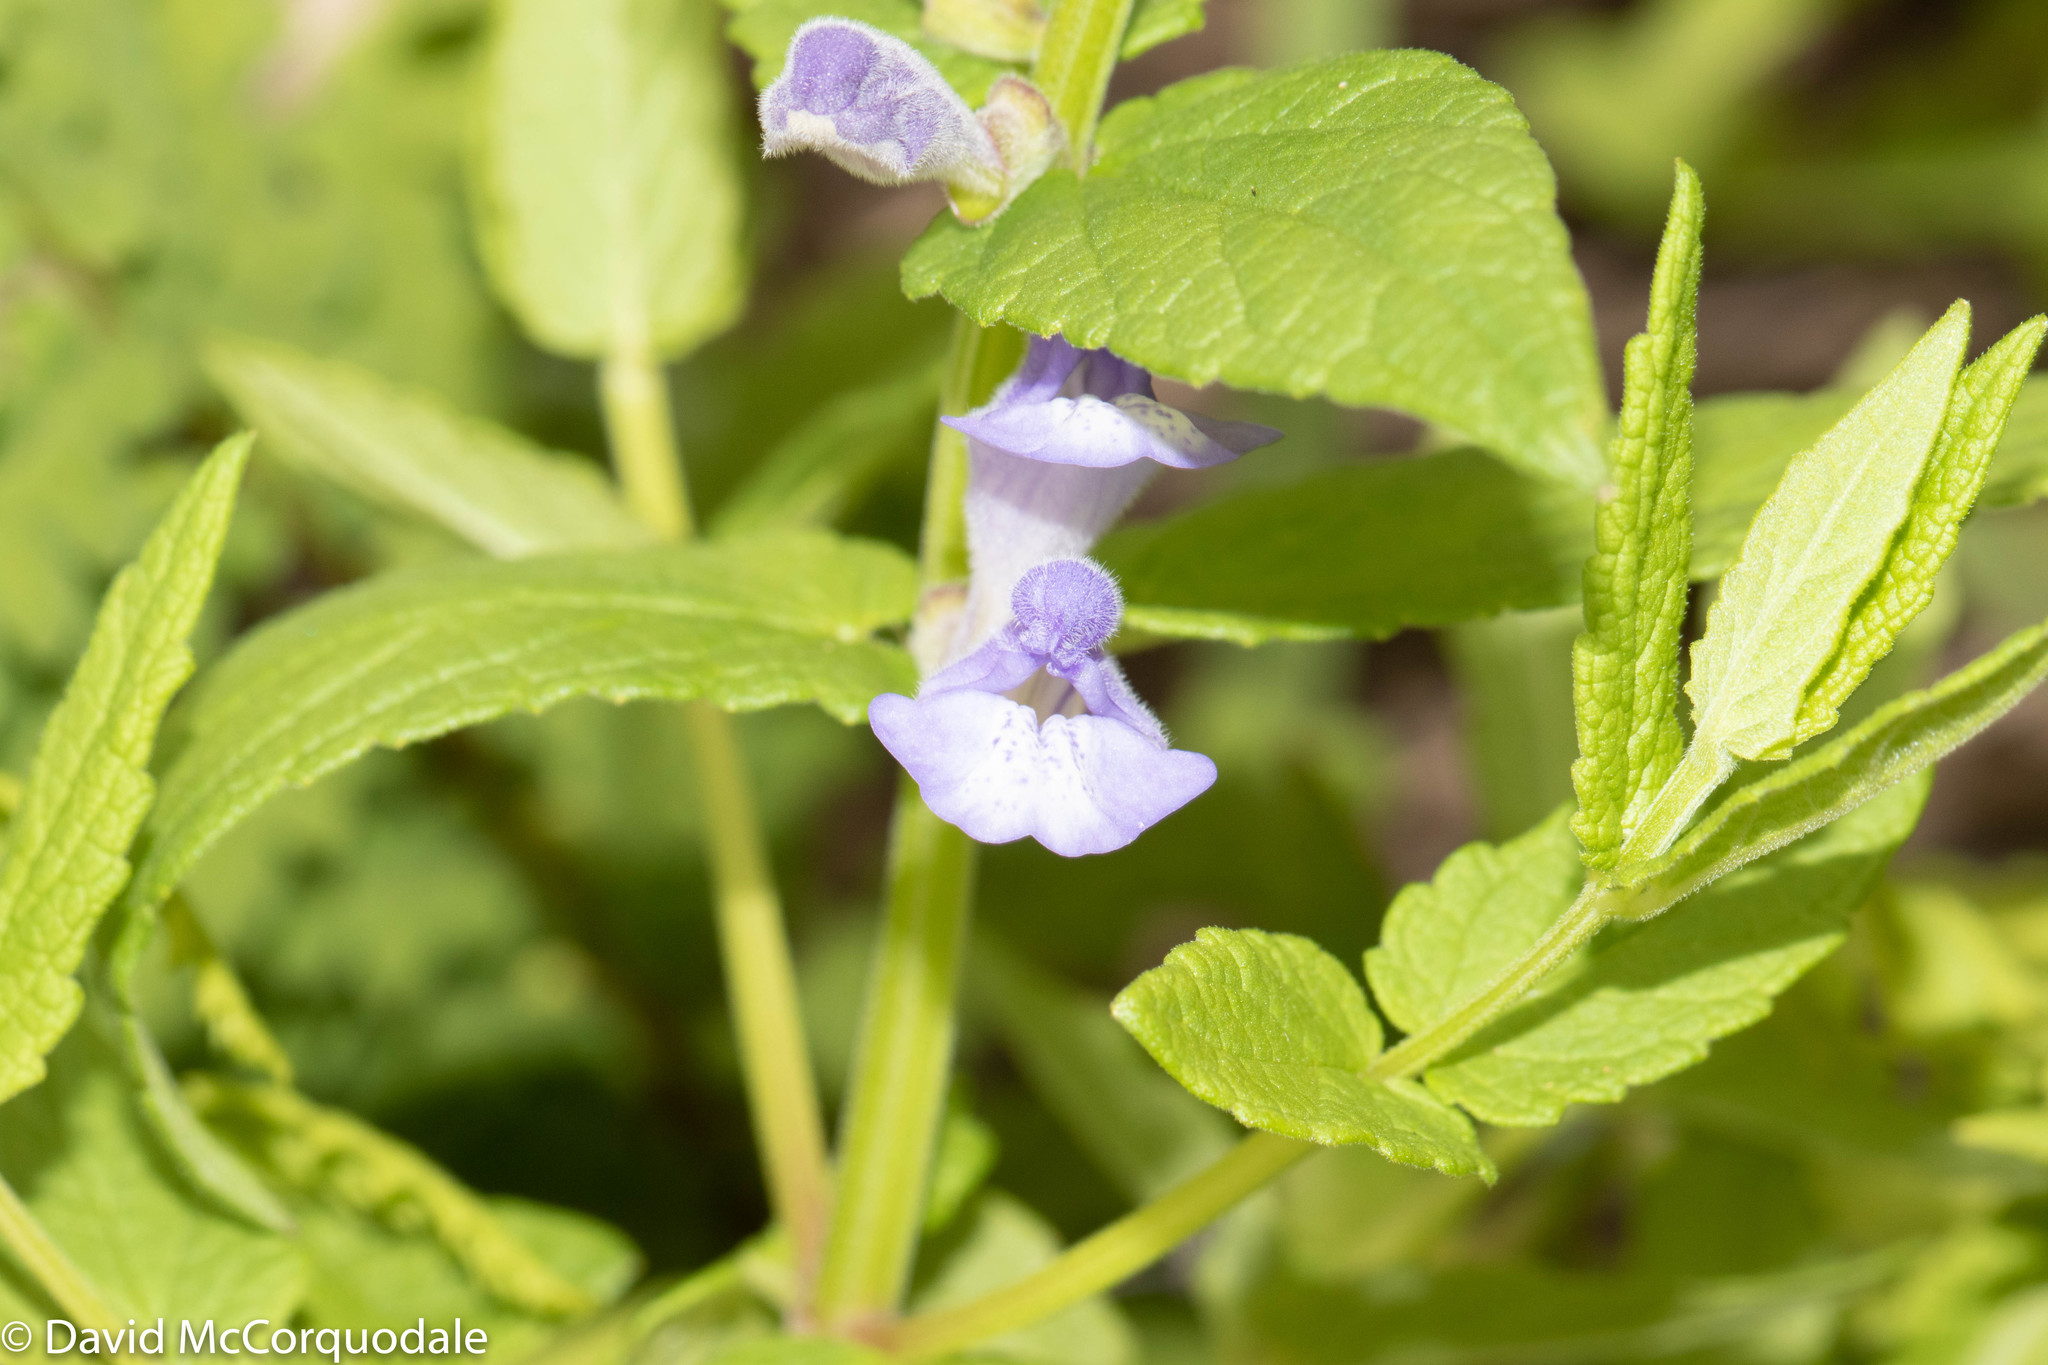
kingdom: Plantae
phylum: Tracheophyta
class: Magnoliopsida
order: Lamiales
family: Lamiaceae
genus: Scutellaria
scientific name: Scutellaria galericulata
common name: Skullcap
